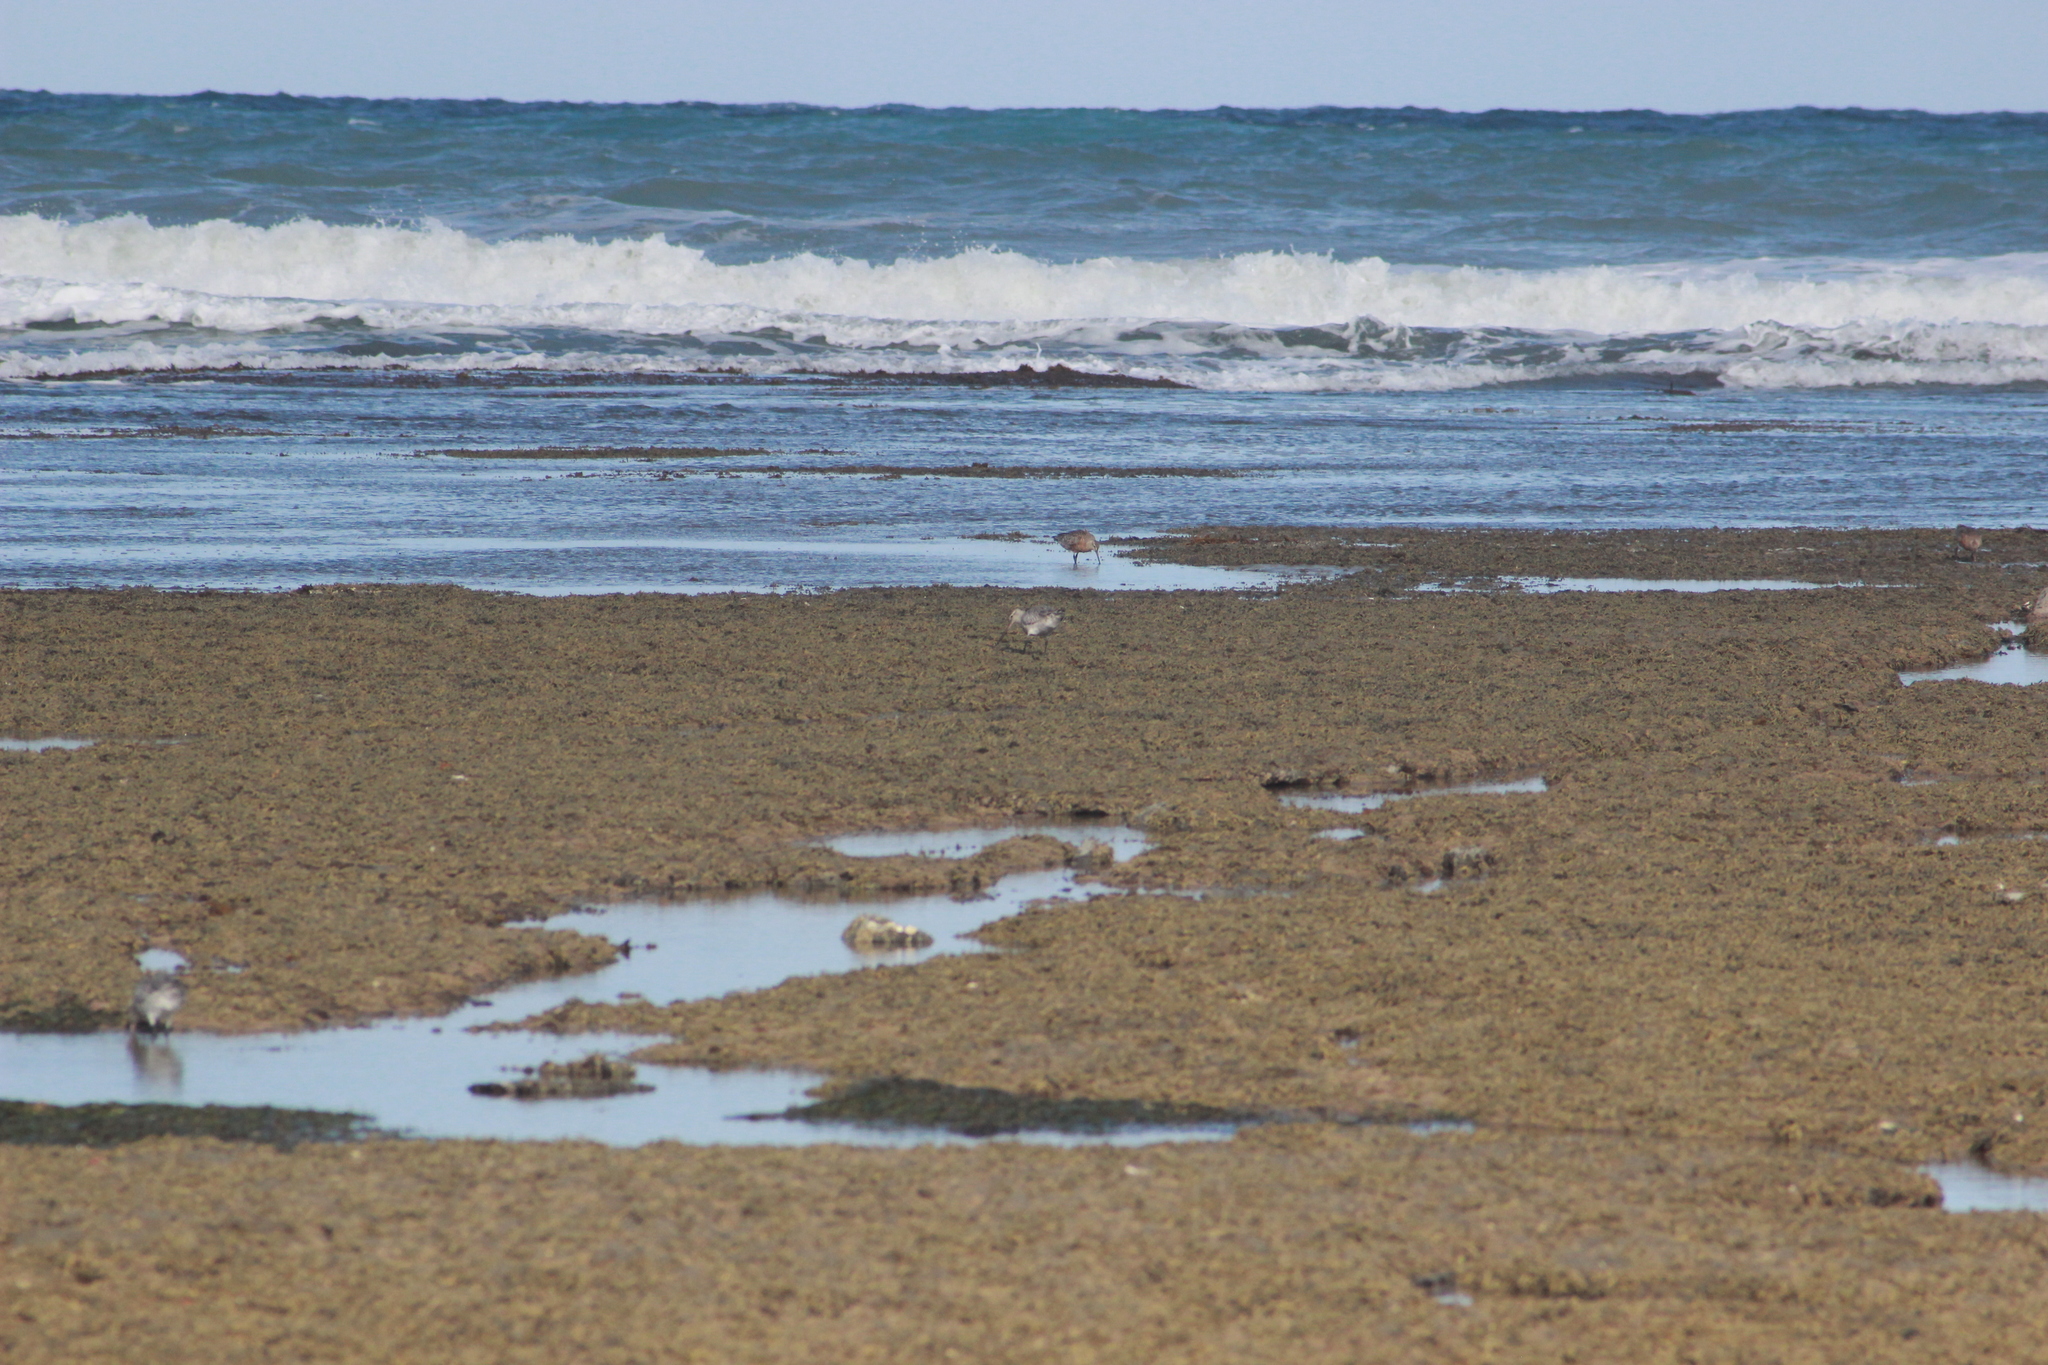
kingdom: Animalia
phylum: Chordata
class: Aves
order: Charadriiformes
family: Scolopacidae
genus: Limosa
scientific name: Limosa lapponica
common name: Bar-tailed godwit
